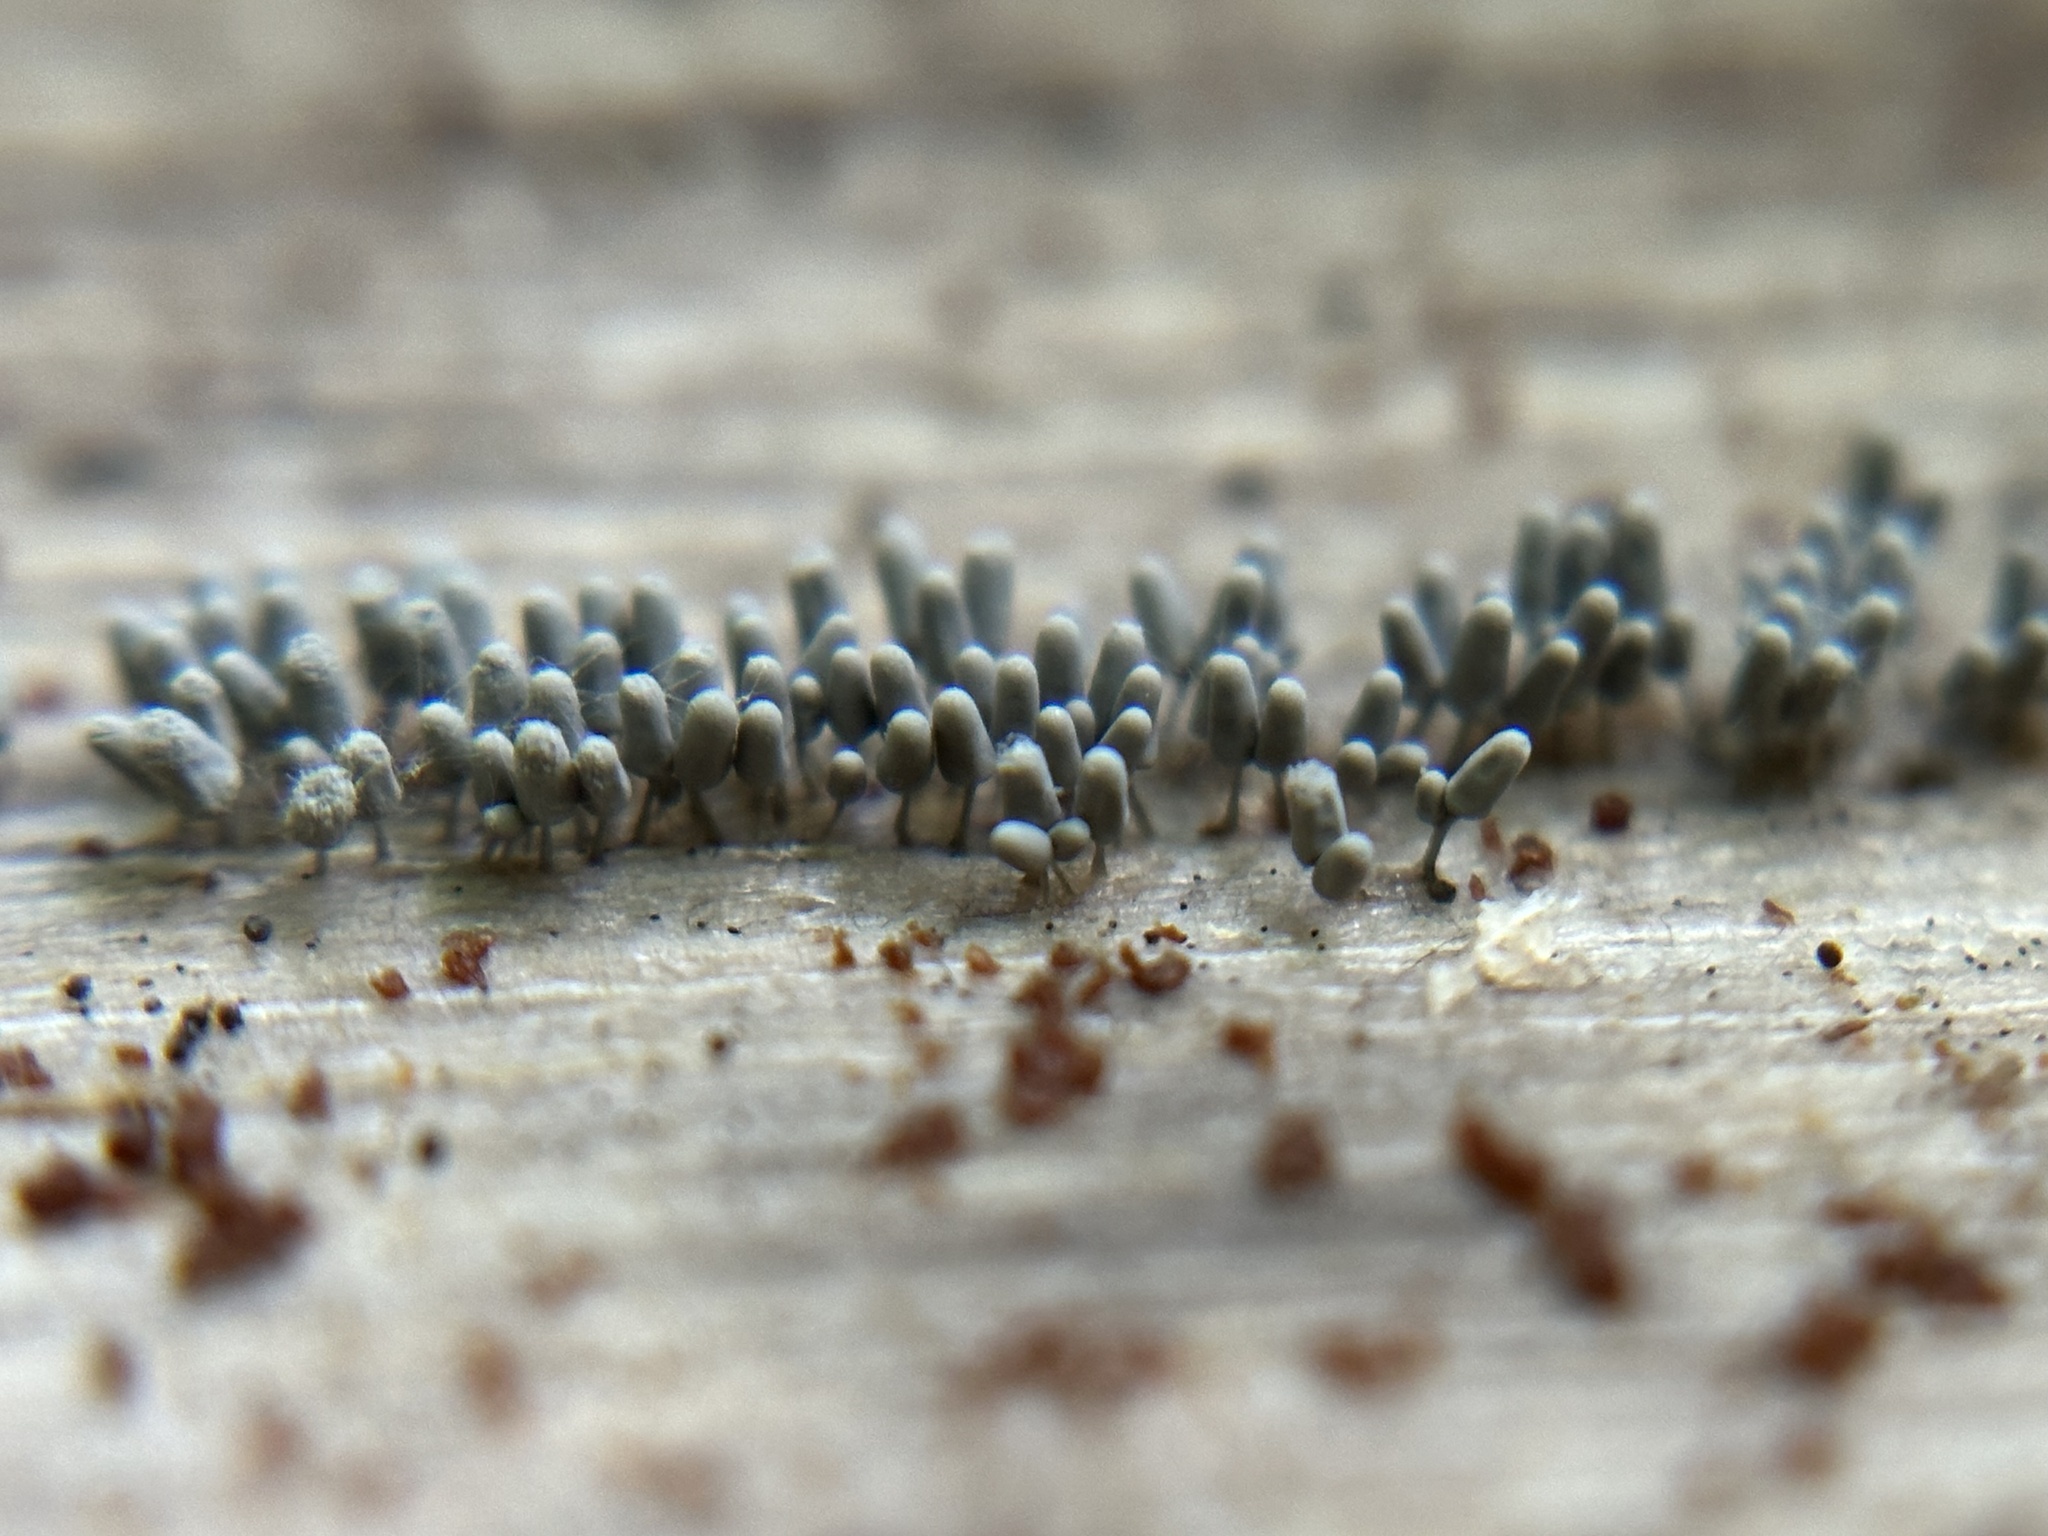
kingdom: Protozoa
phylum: Mycetozoa
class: Myxomycetes
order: Trichiales
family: Arcyriaceae
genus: Arcyria
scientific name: Arcyria cinerea
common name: White carnival candy slime mold
